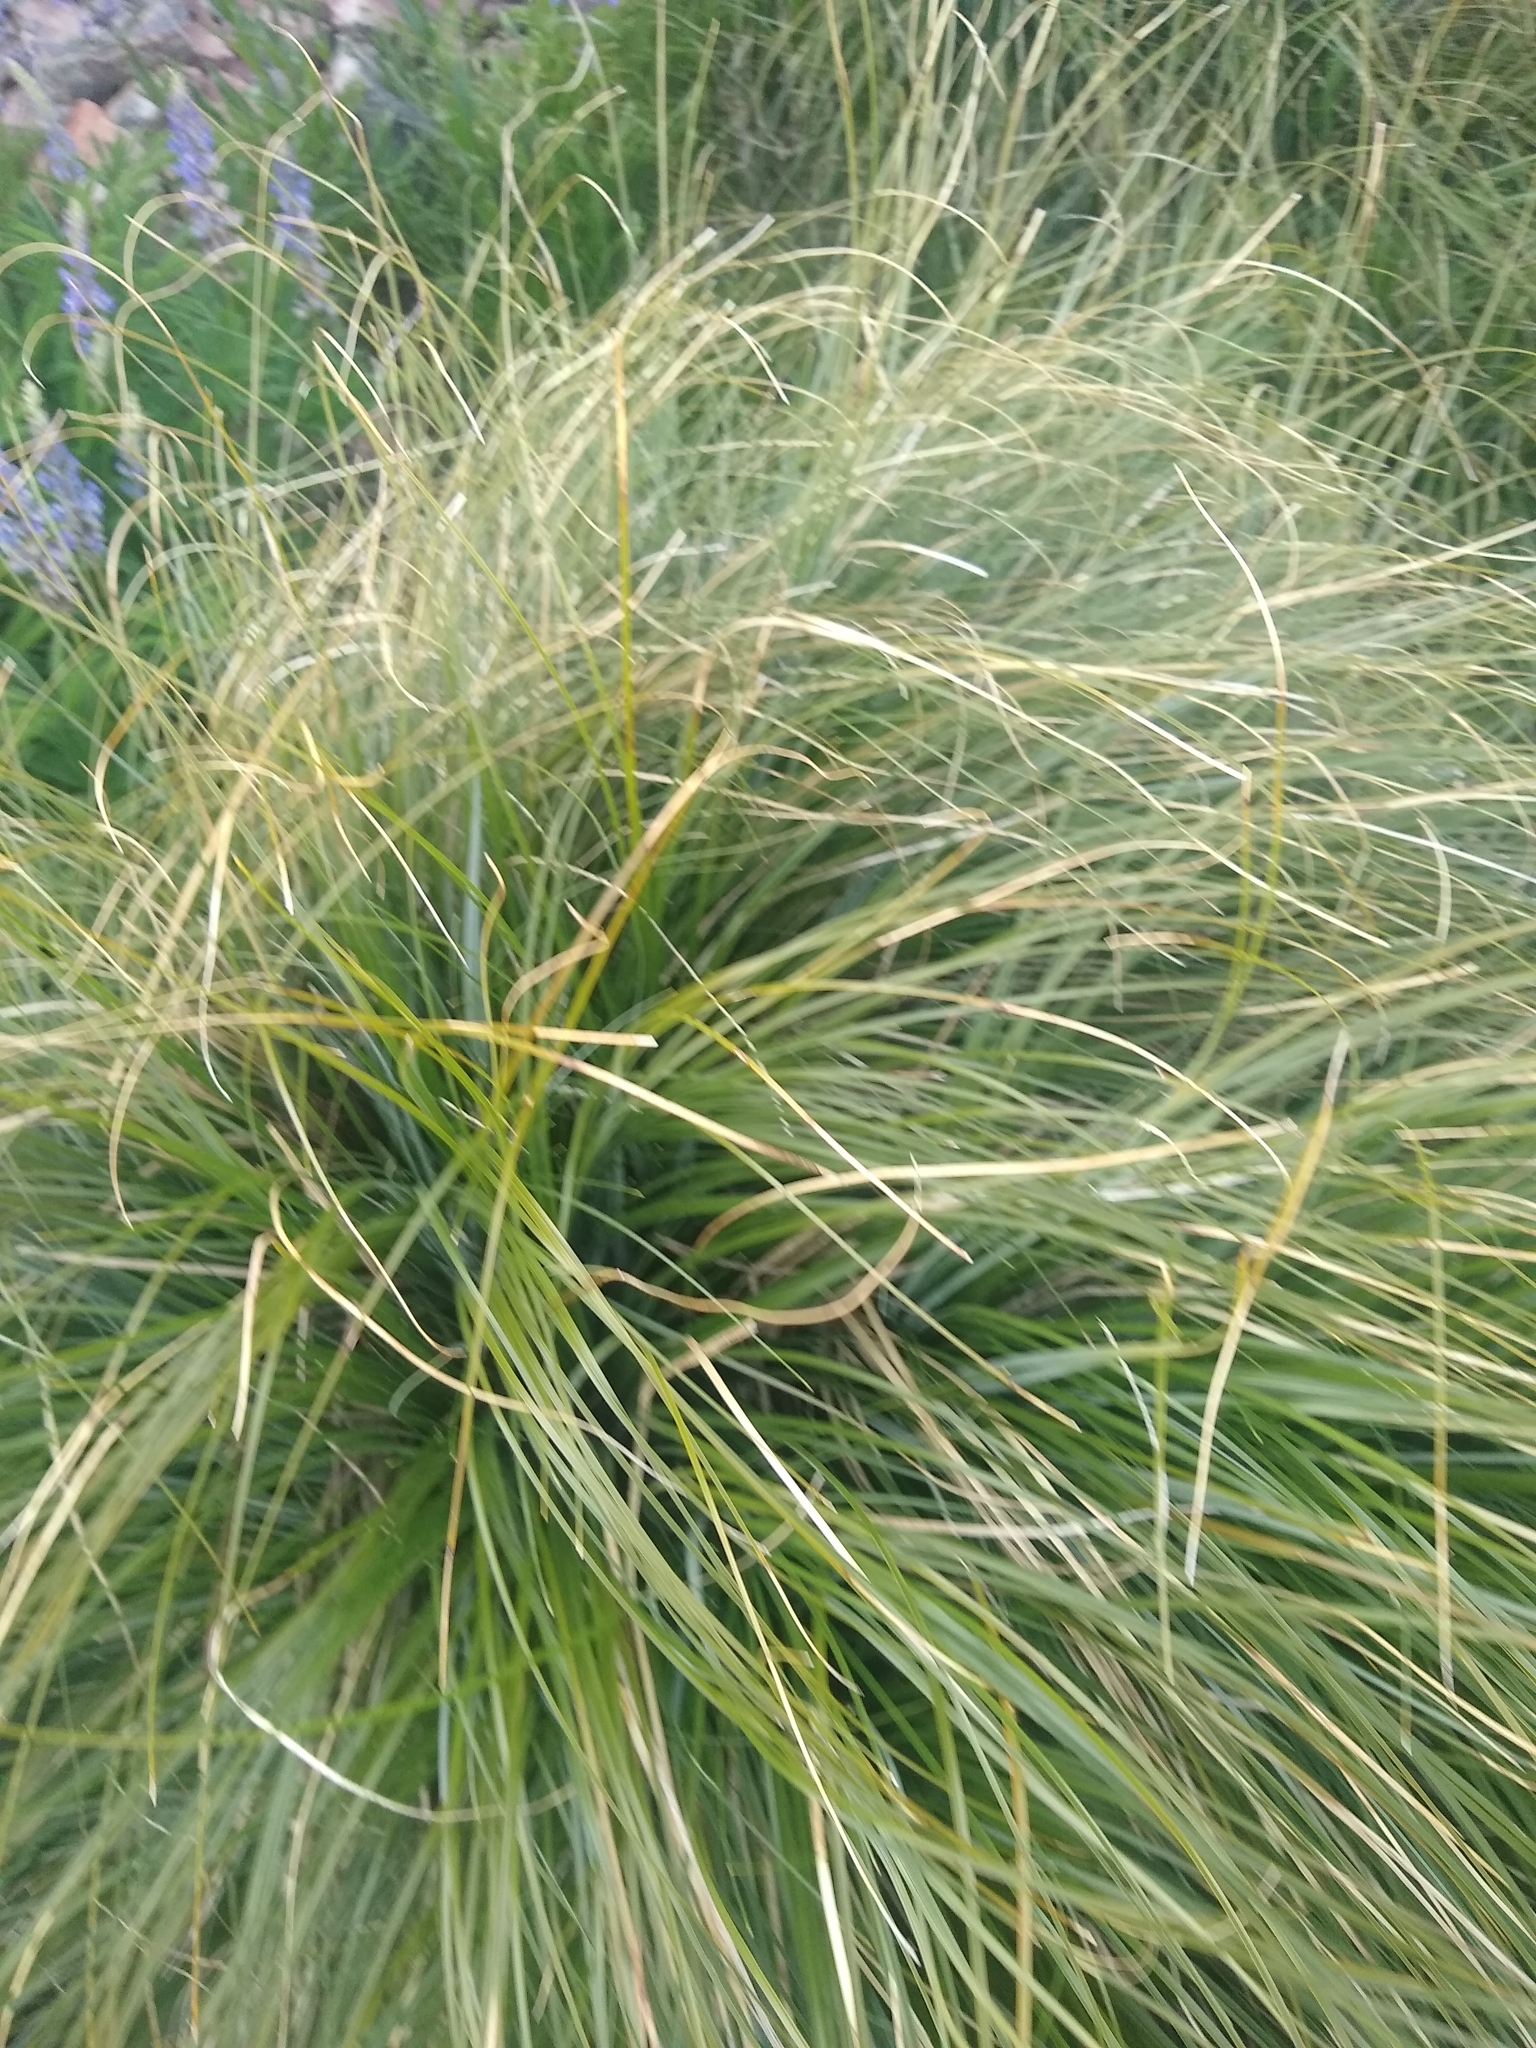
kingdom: Plantae
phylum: Tracheophyta
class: Liliopsida
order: Liliales
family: Melanthiaceae
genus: Xerophyllum
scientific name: Xerophyllum tenax
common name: Bear-grass
